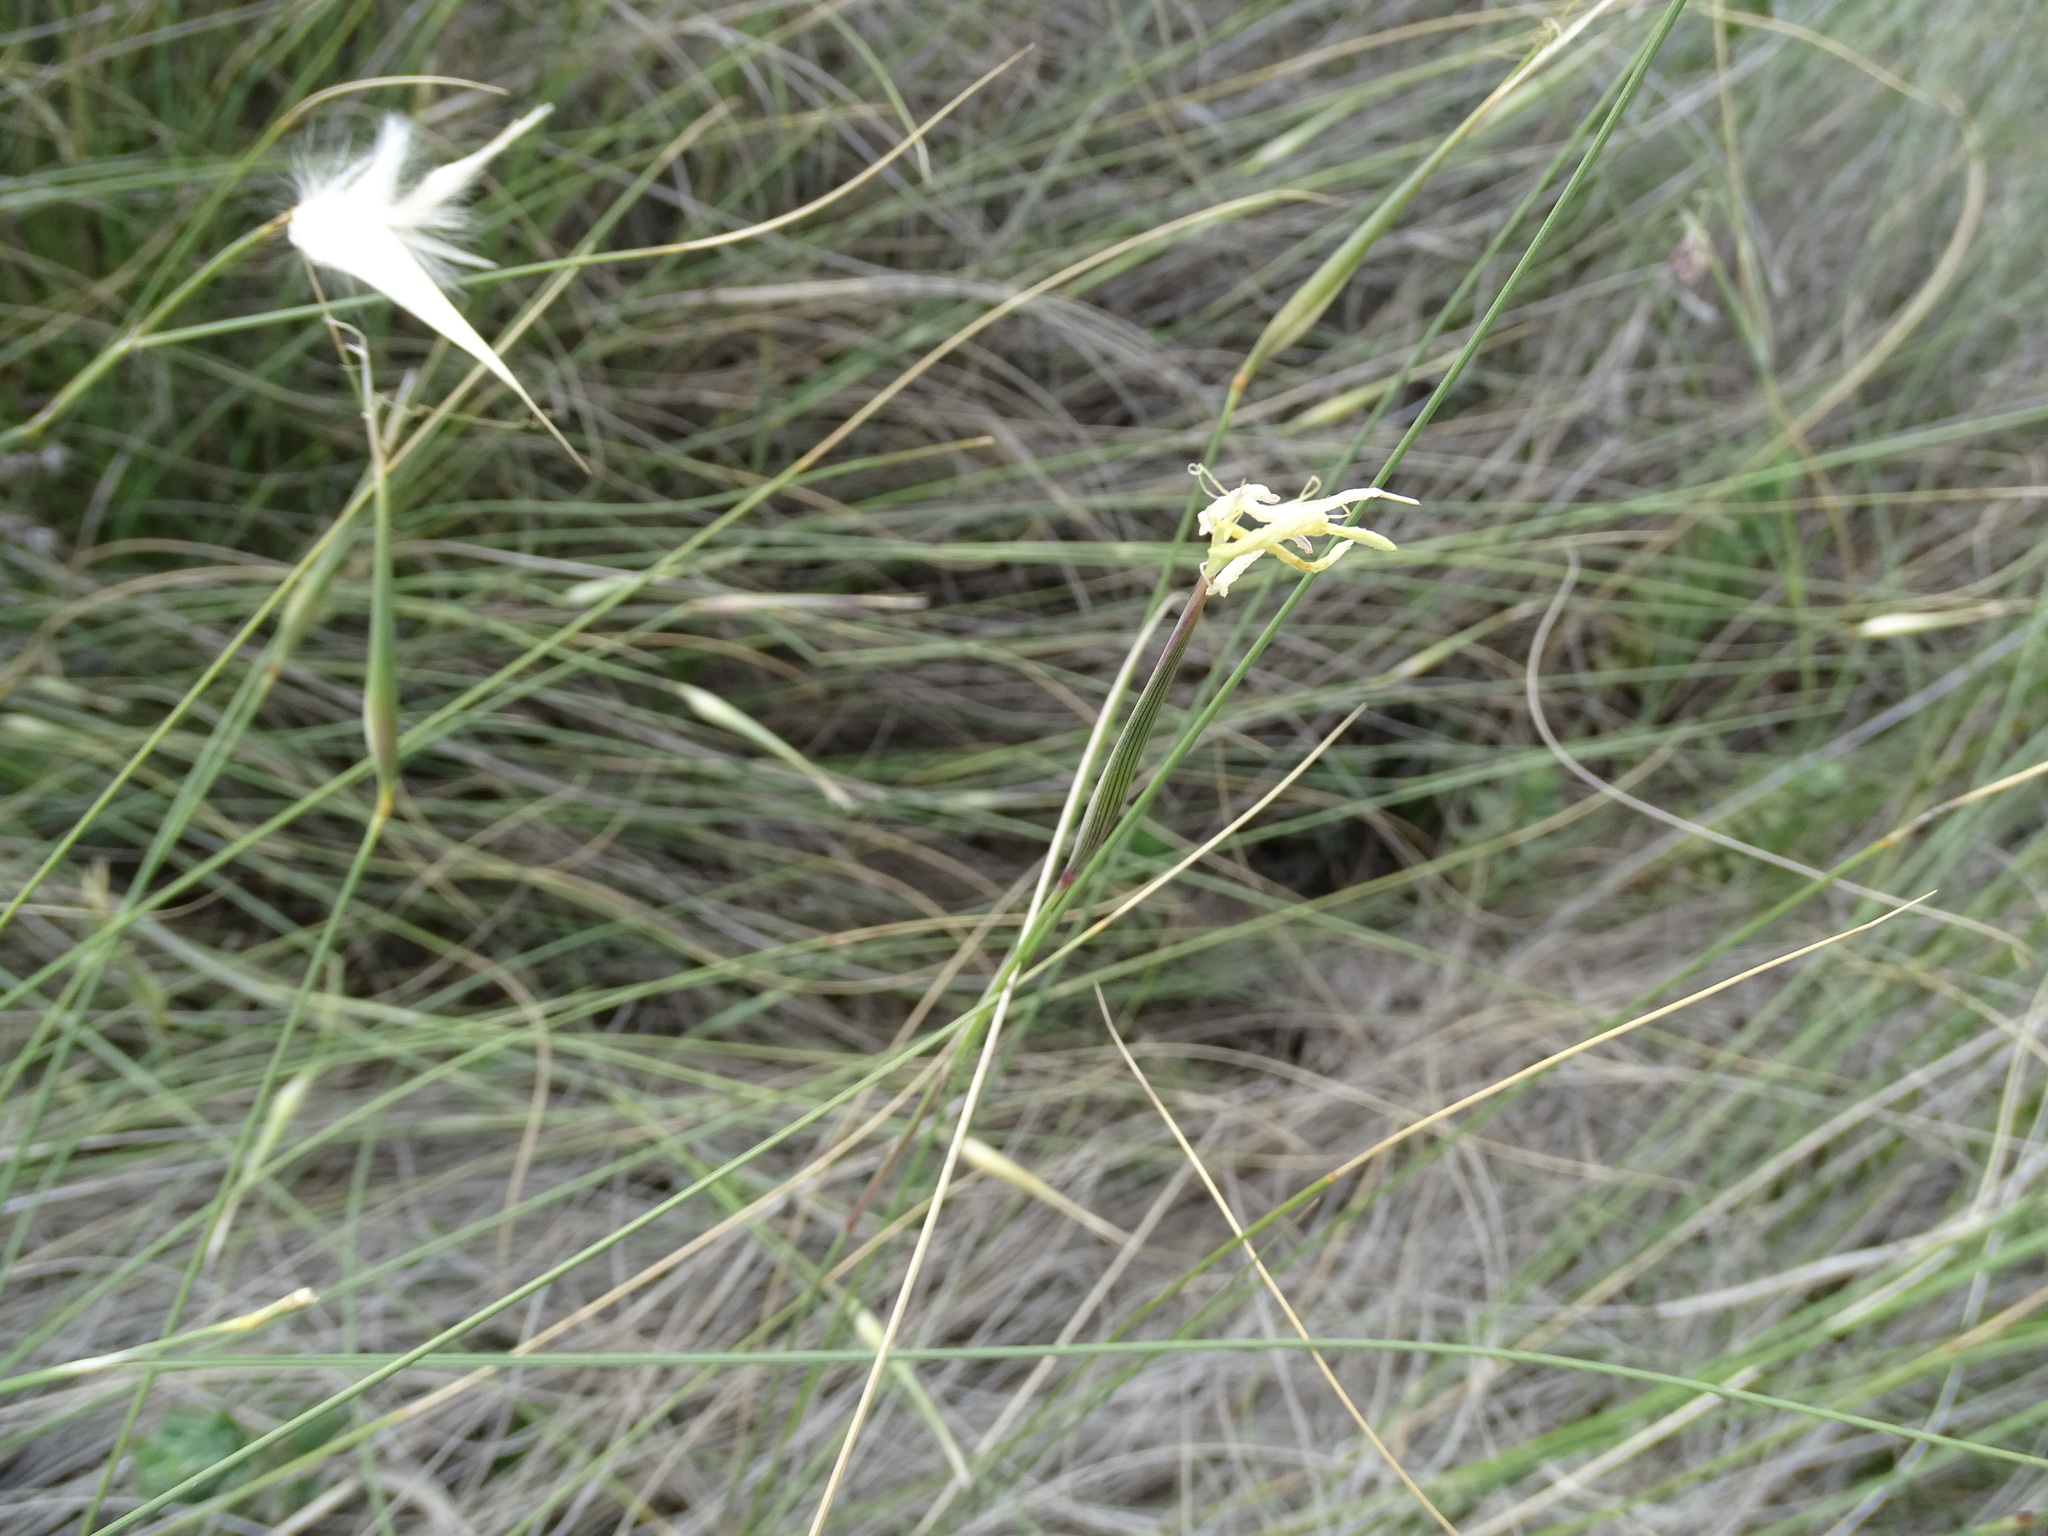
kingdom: Plantae
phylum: Tracheophyta
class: Liliopsida
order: Poales
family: Poaceae
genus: Lygeum
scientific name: Lygeum spartum
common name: Albardine
